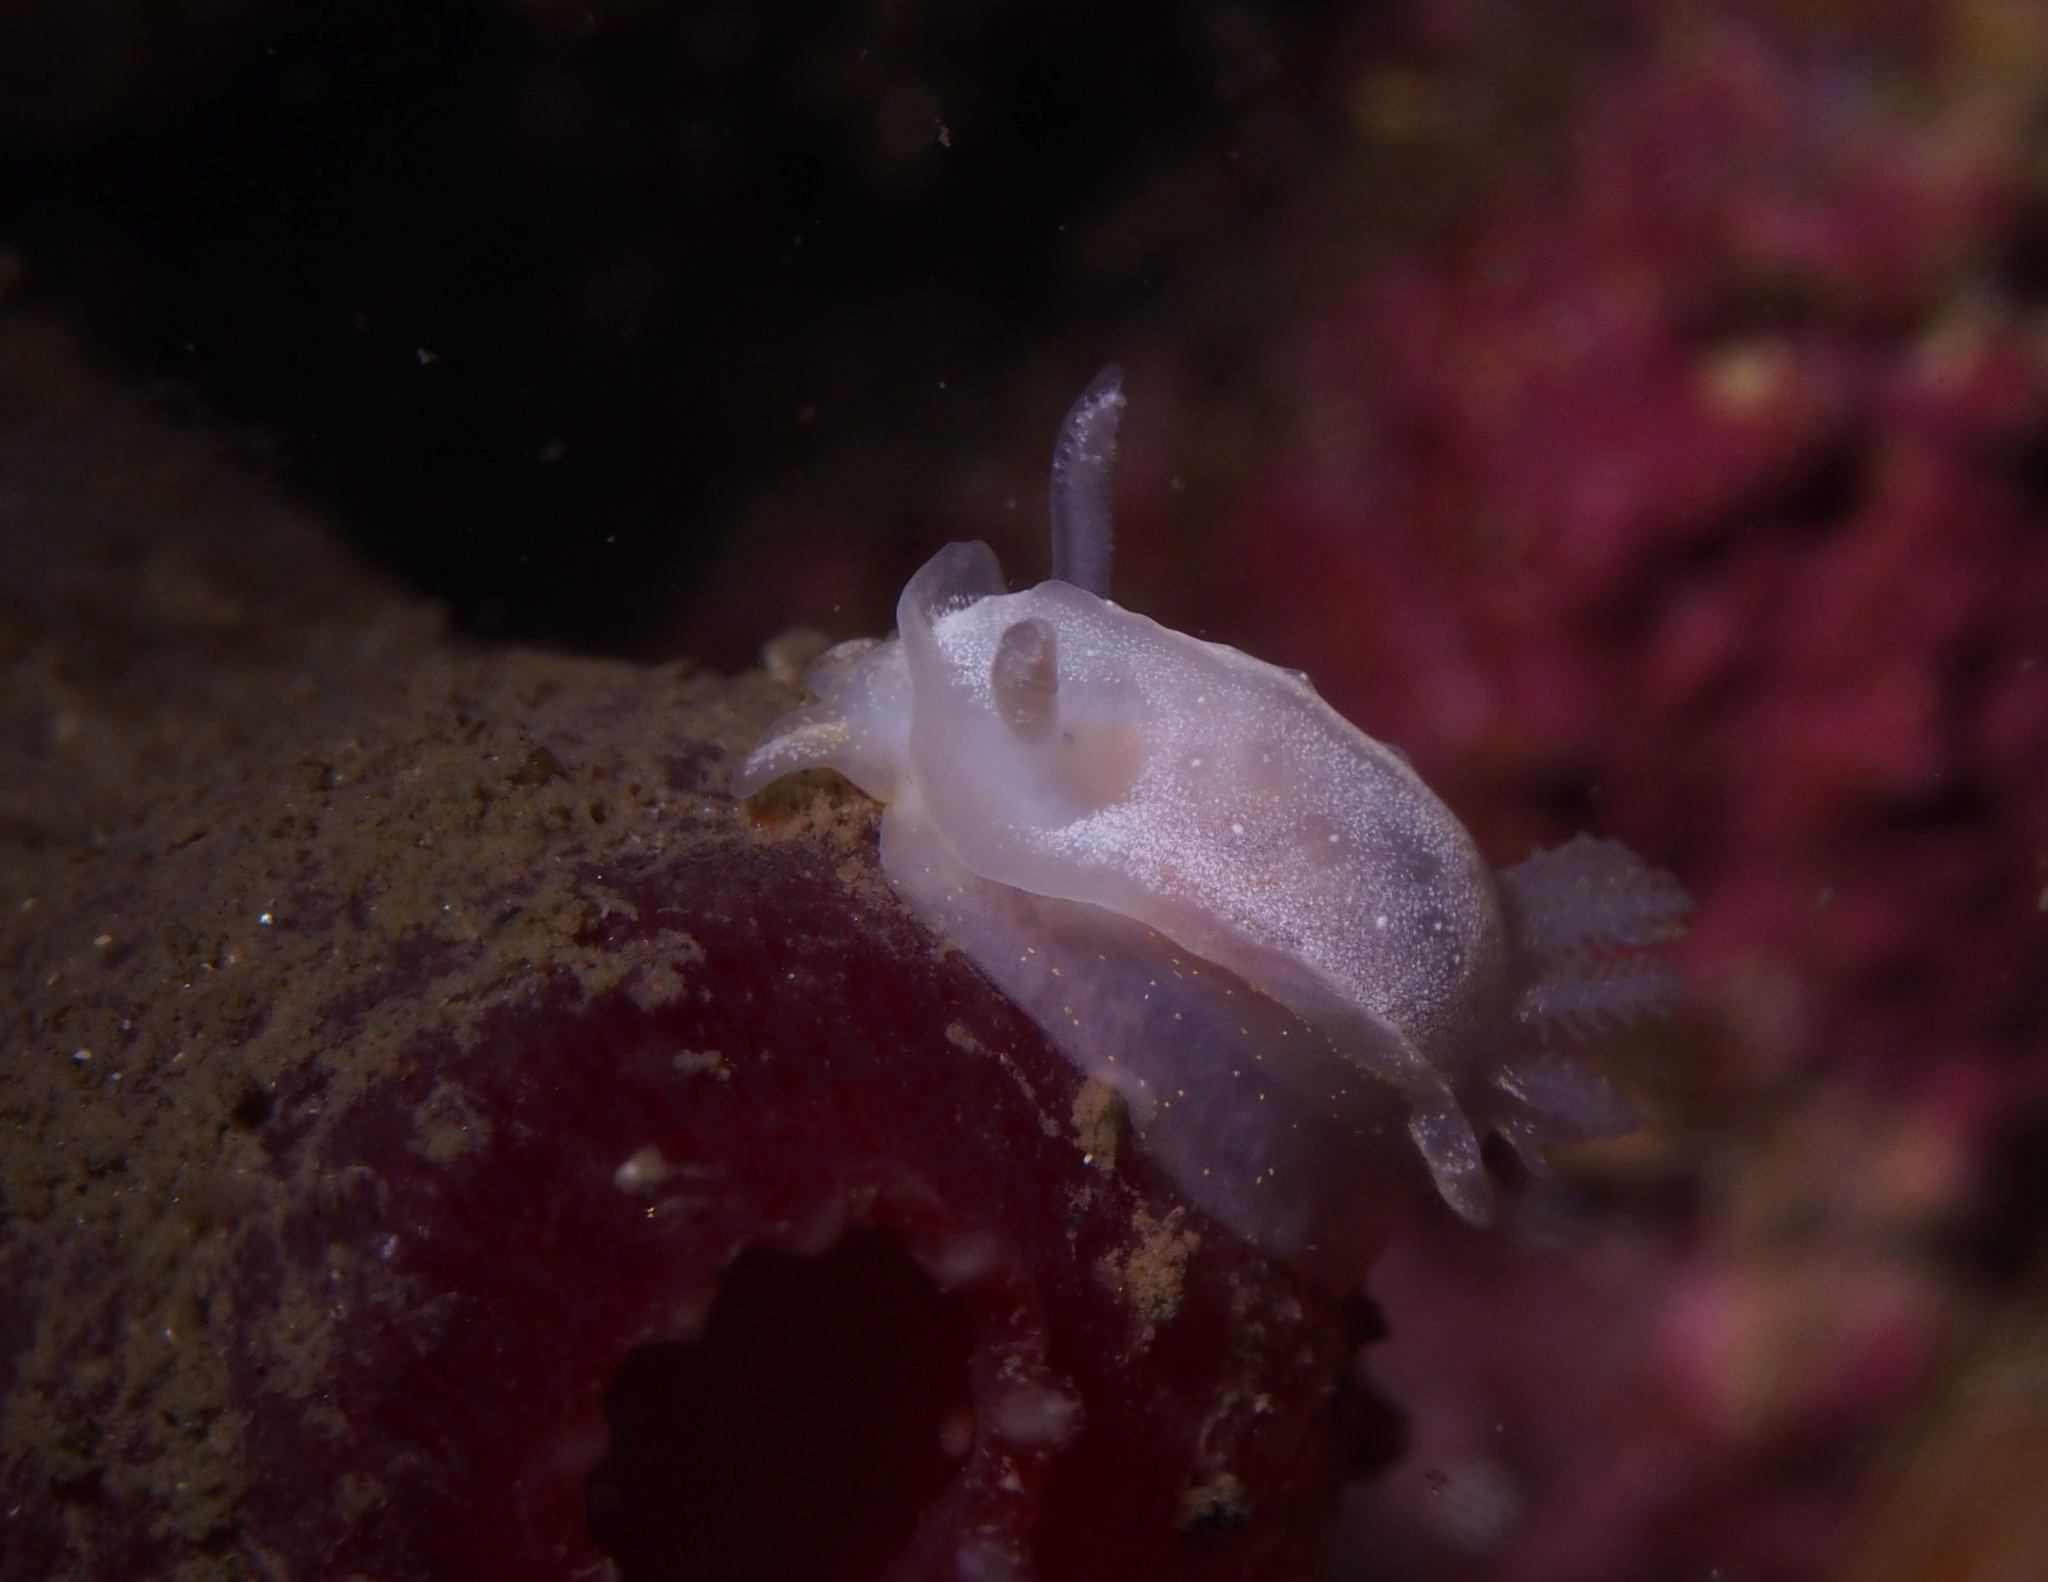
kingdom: Animalia
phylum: Mollusca
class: Gastropoda
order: Nudibranchia
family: Goniodorididae
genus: Okenia
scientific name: Okenia
